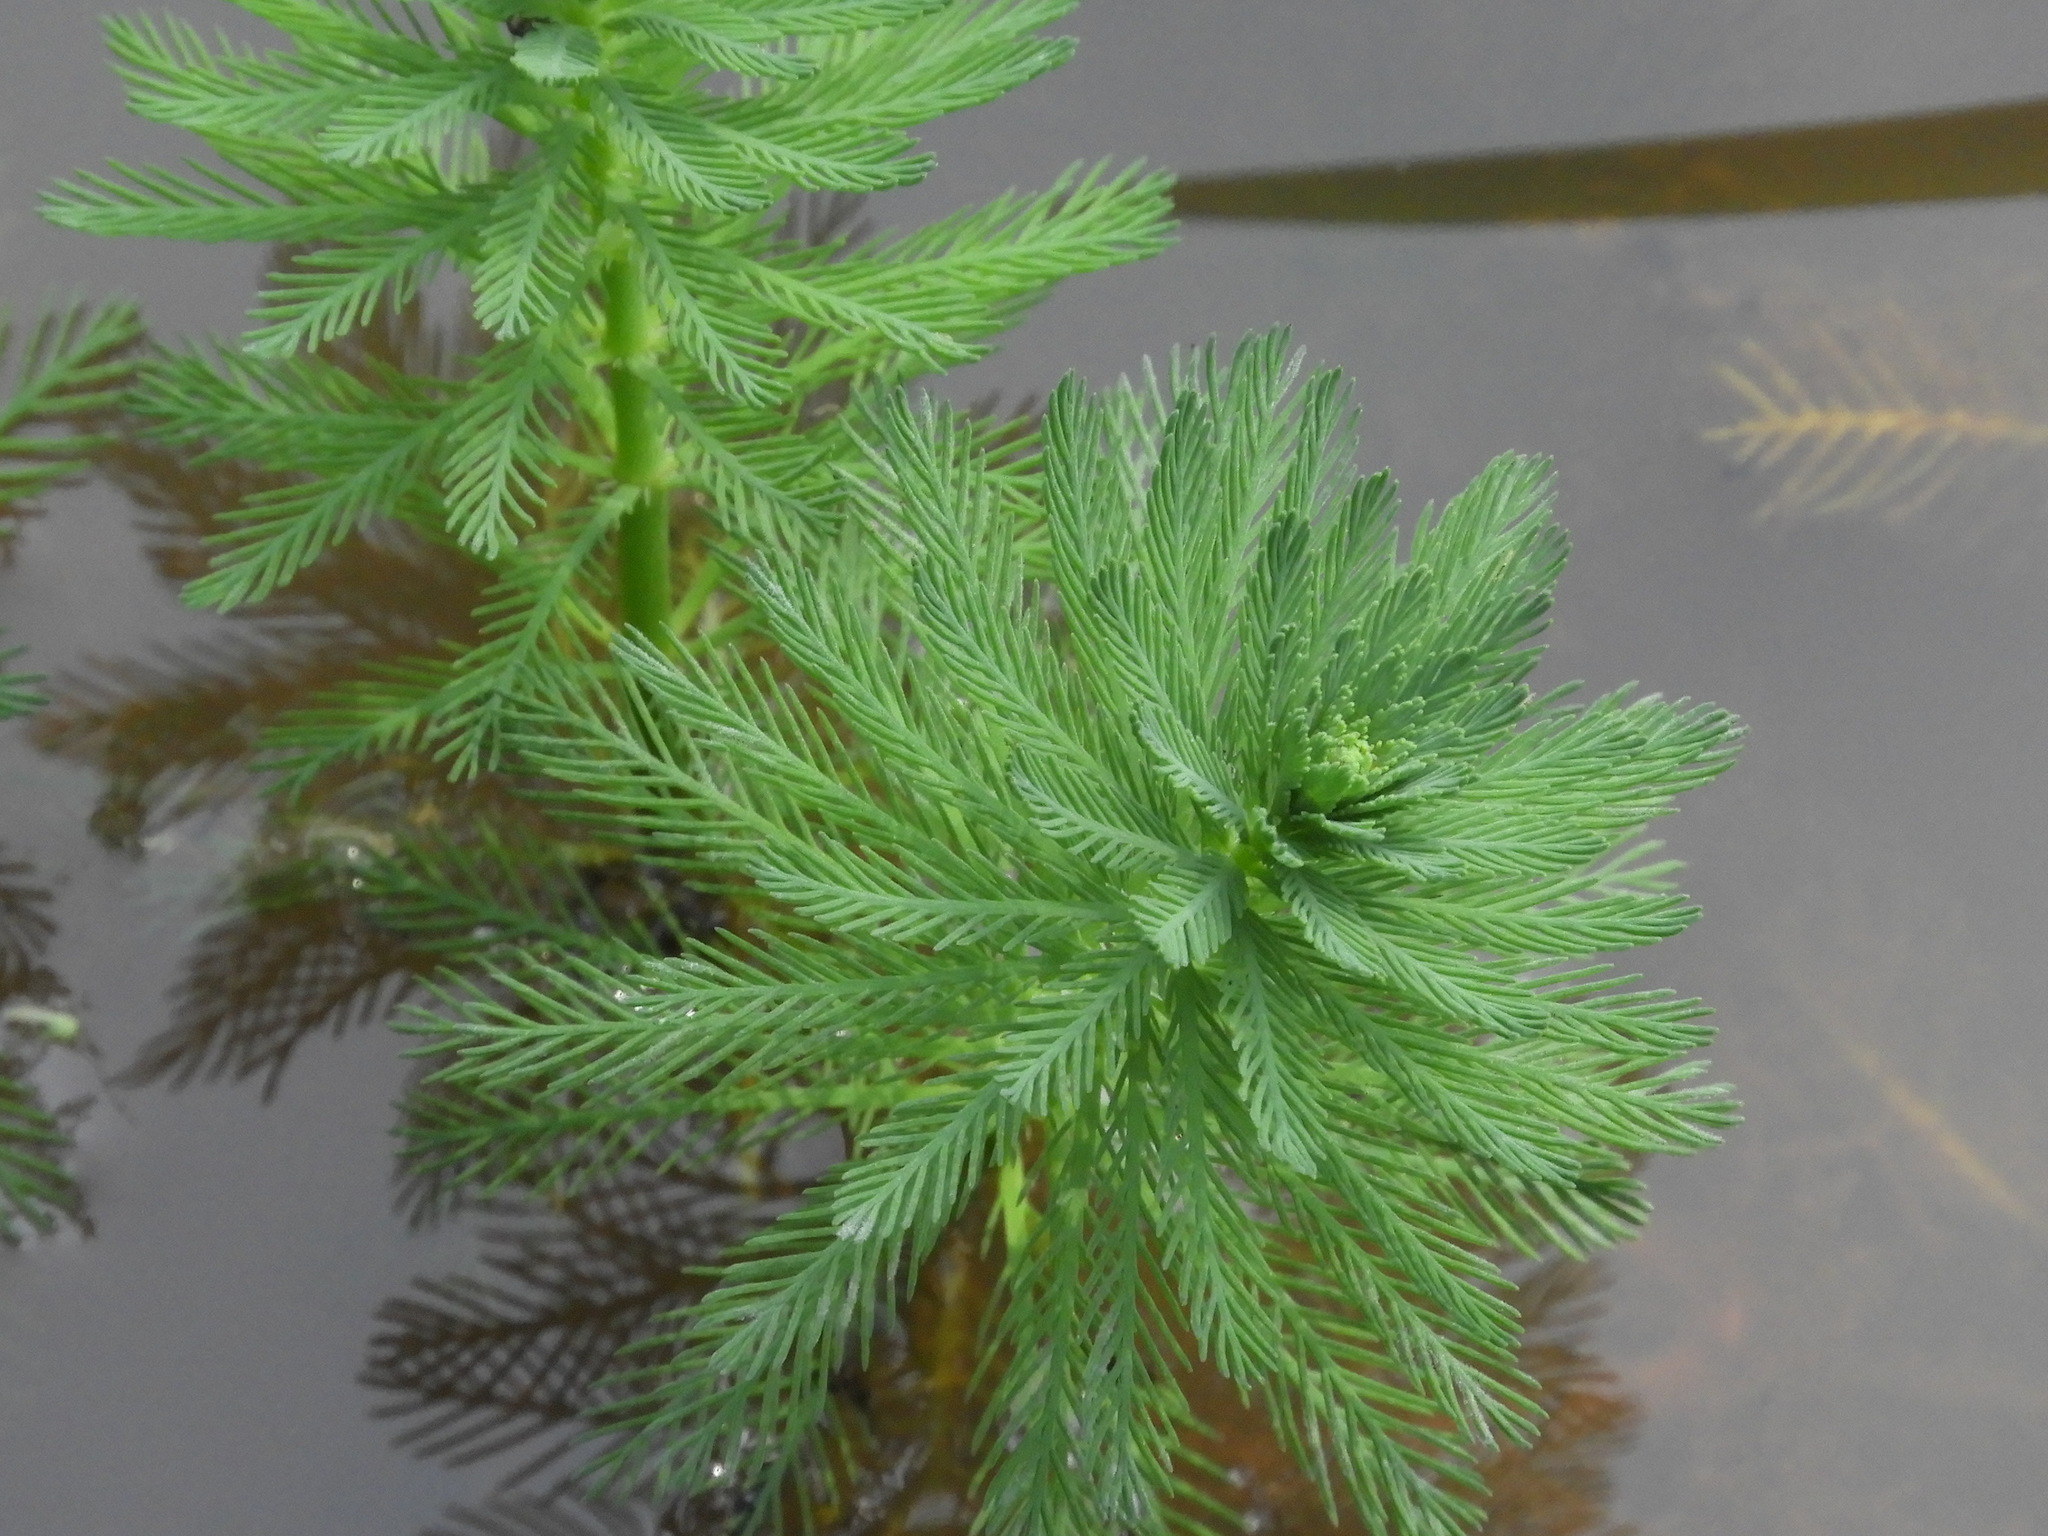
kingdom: Plantae
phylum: Tracheophyta
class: Magnoliopsida
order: Saxifragales
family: Haloragaceae
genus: Myriophyllum
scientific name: Myriophyllum aquaticum
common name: Parrot's feather
